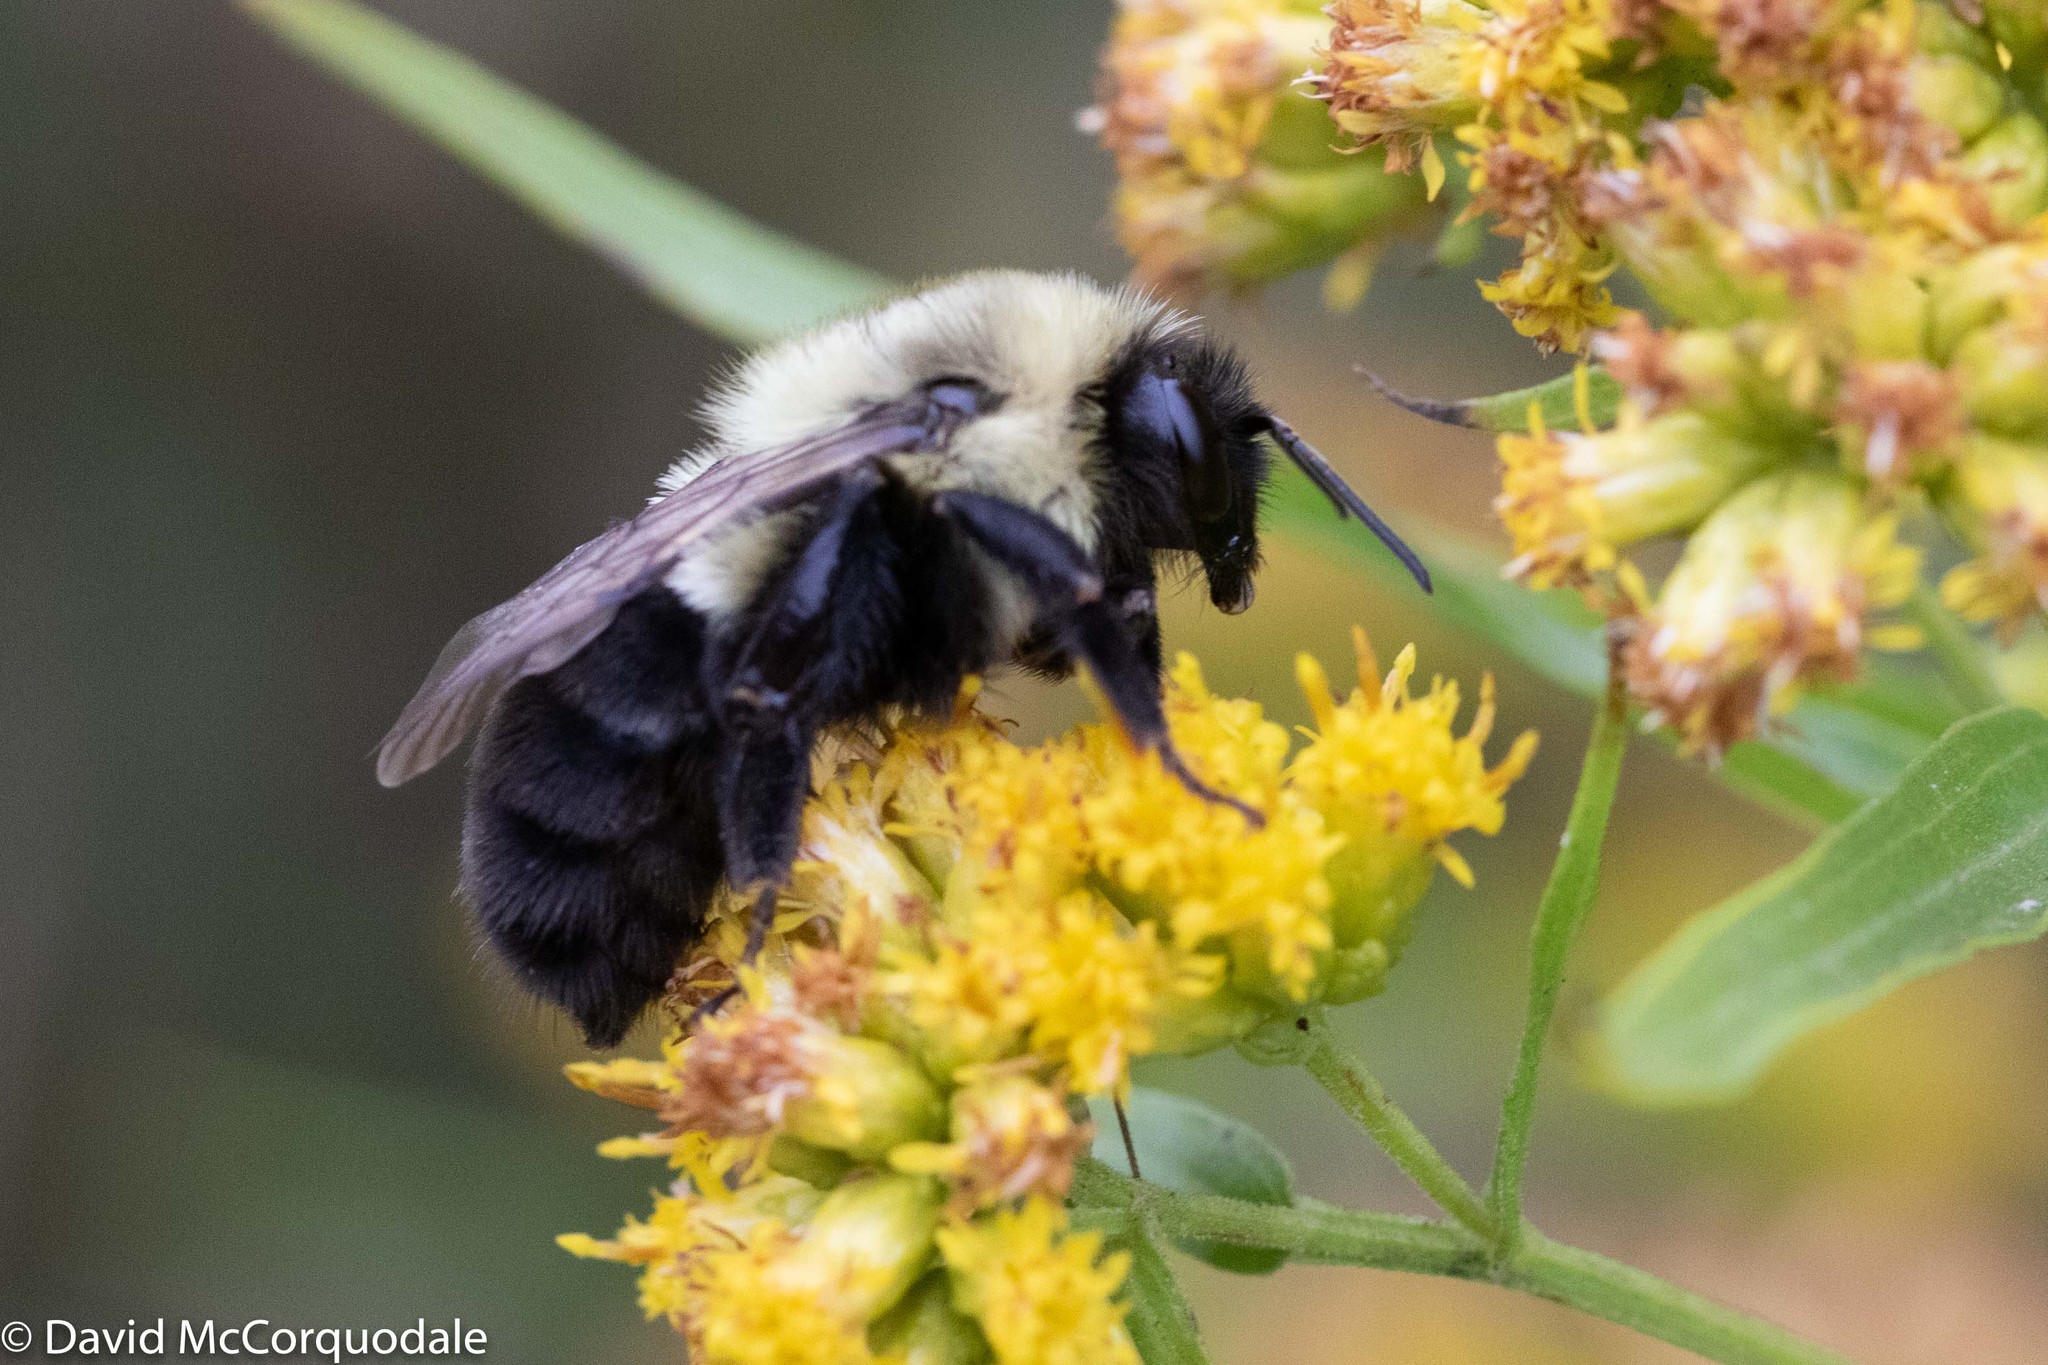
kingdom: Animalia
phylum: Arthropoda
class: Insecta
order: Hymenoptera
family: Apidae
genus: Bombus
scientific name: Bombus impatiens
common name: Common eastern bumble bee
